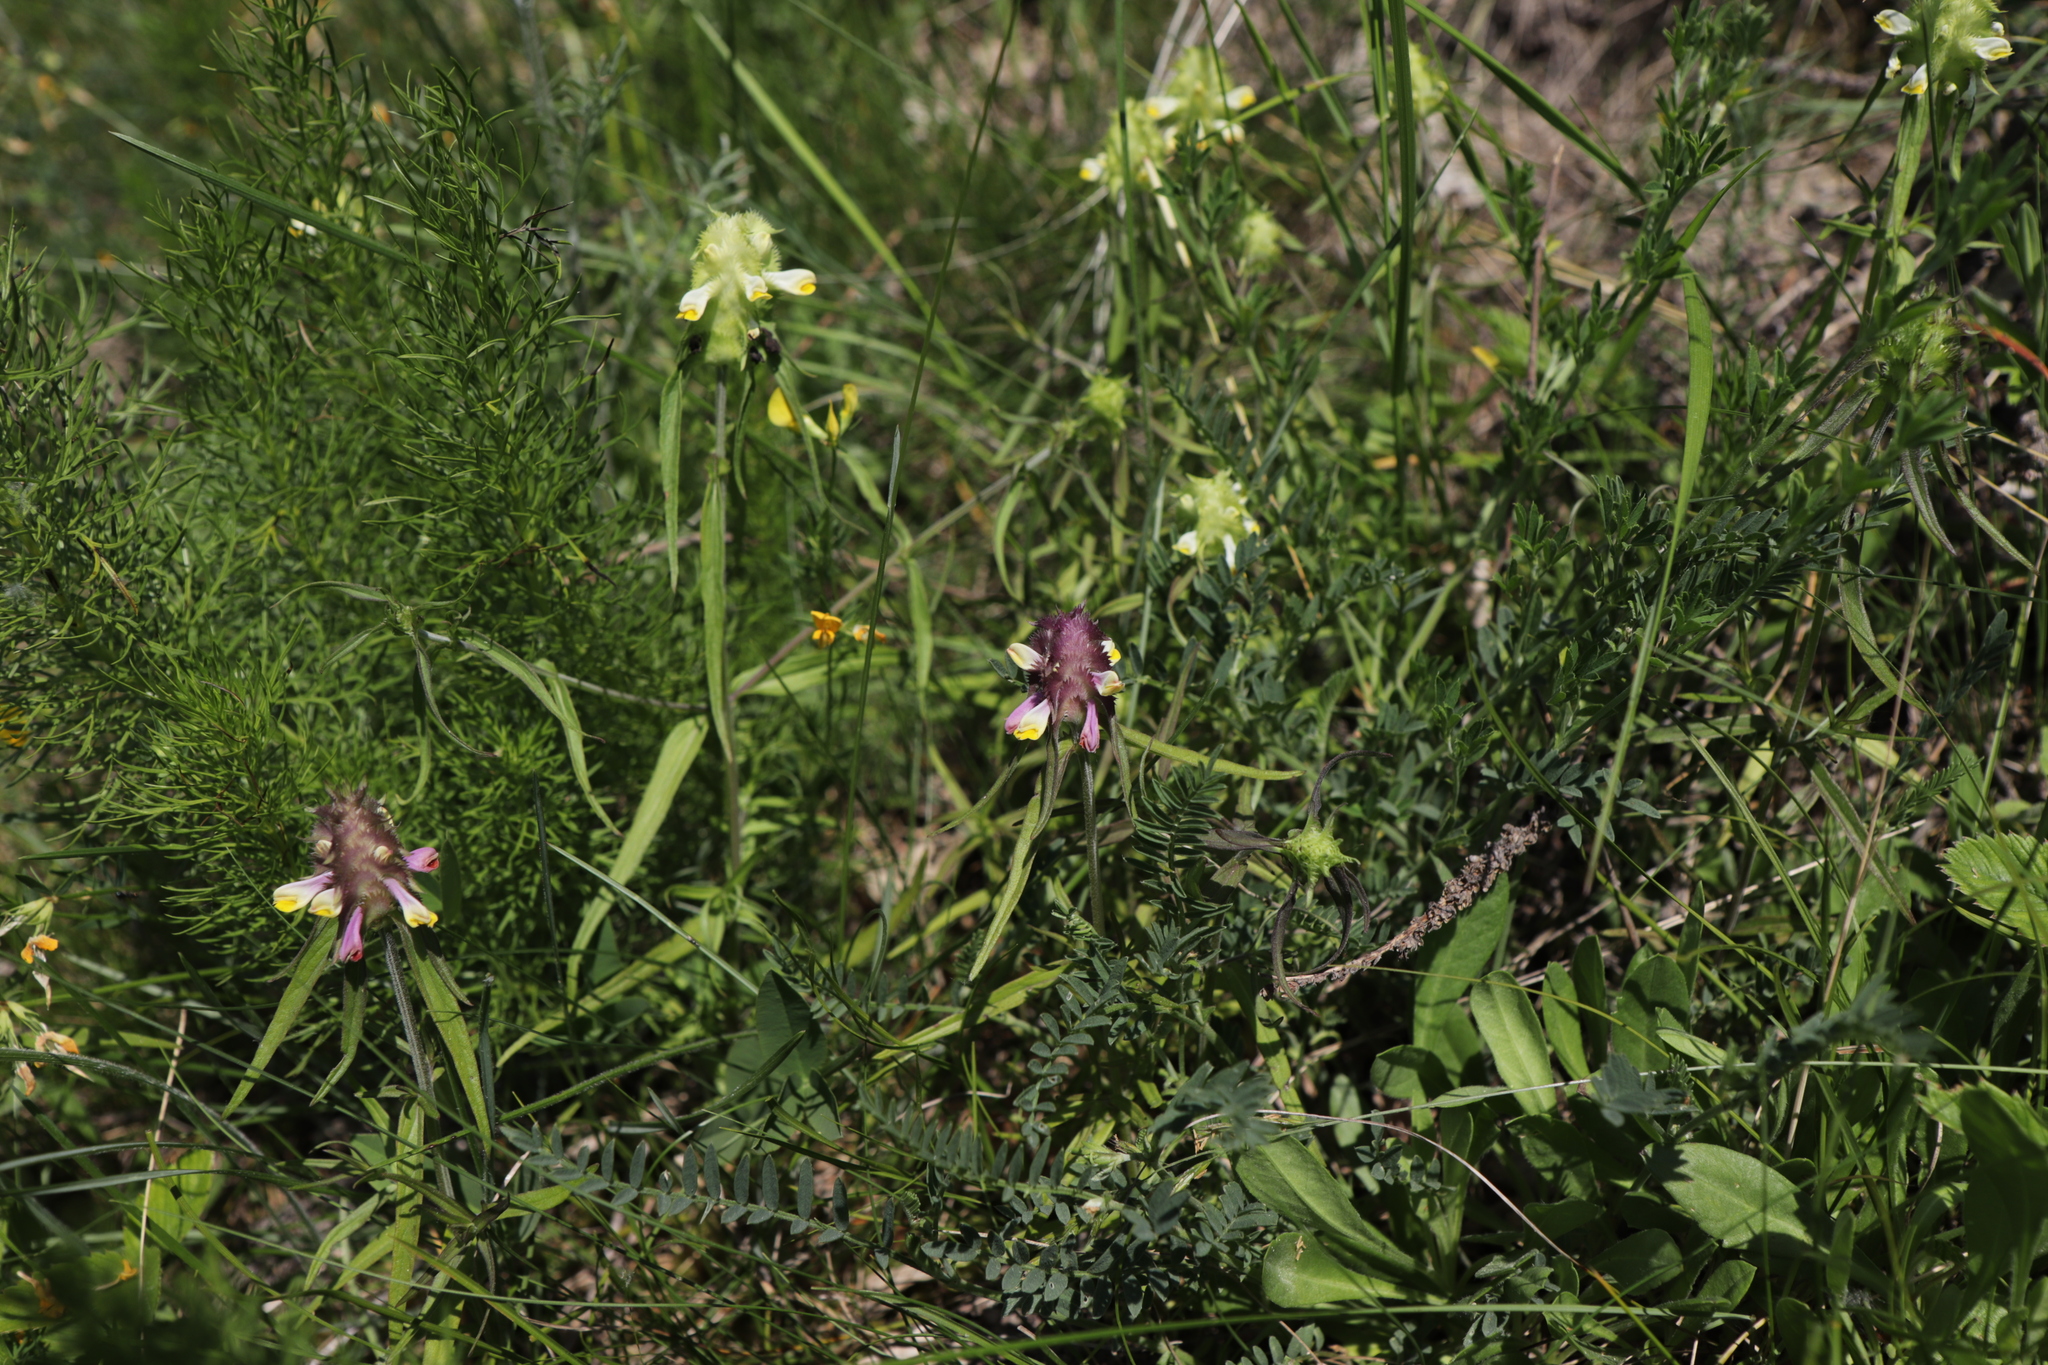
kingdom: Plantae
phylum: Tracheophyta
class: Magnoliopsida
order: Lamiales
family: Orobanchaceae
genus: Melampyrum
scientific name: Melampyrum cristatum
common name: Crested cow-wheat
